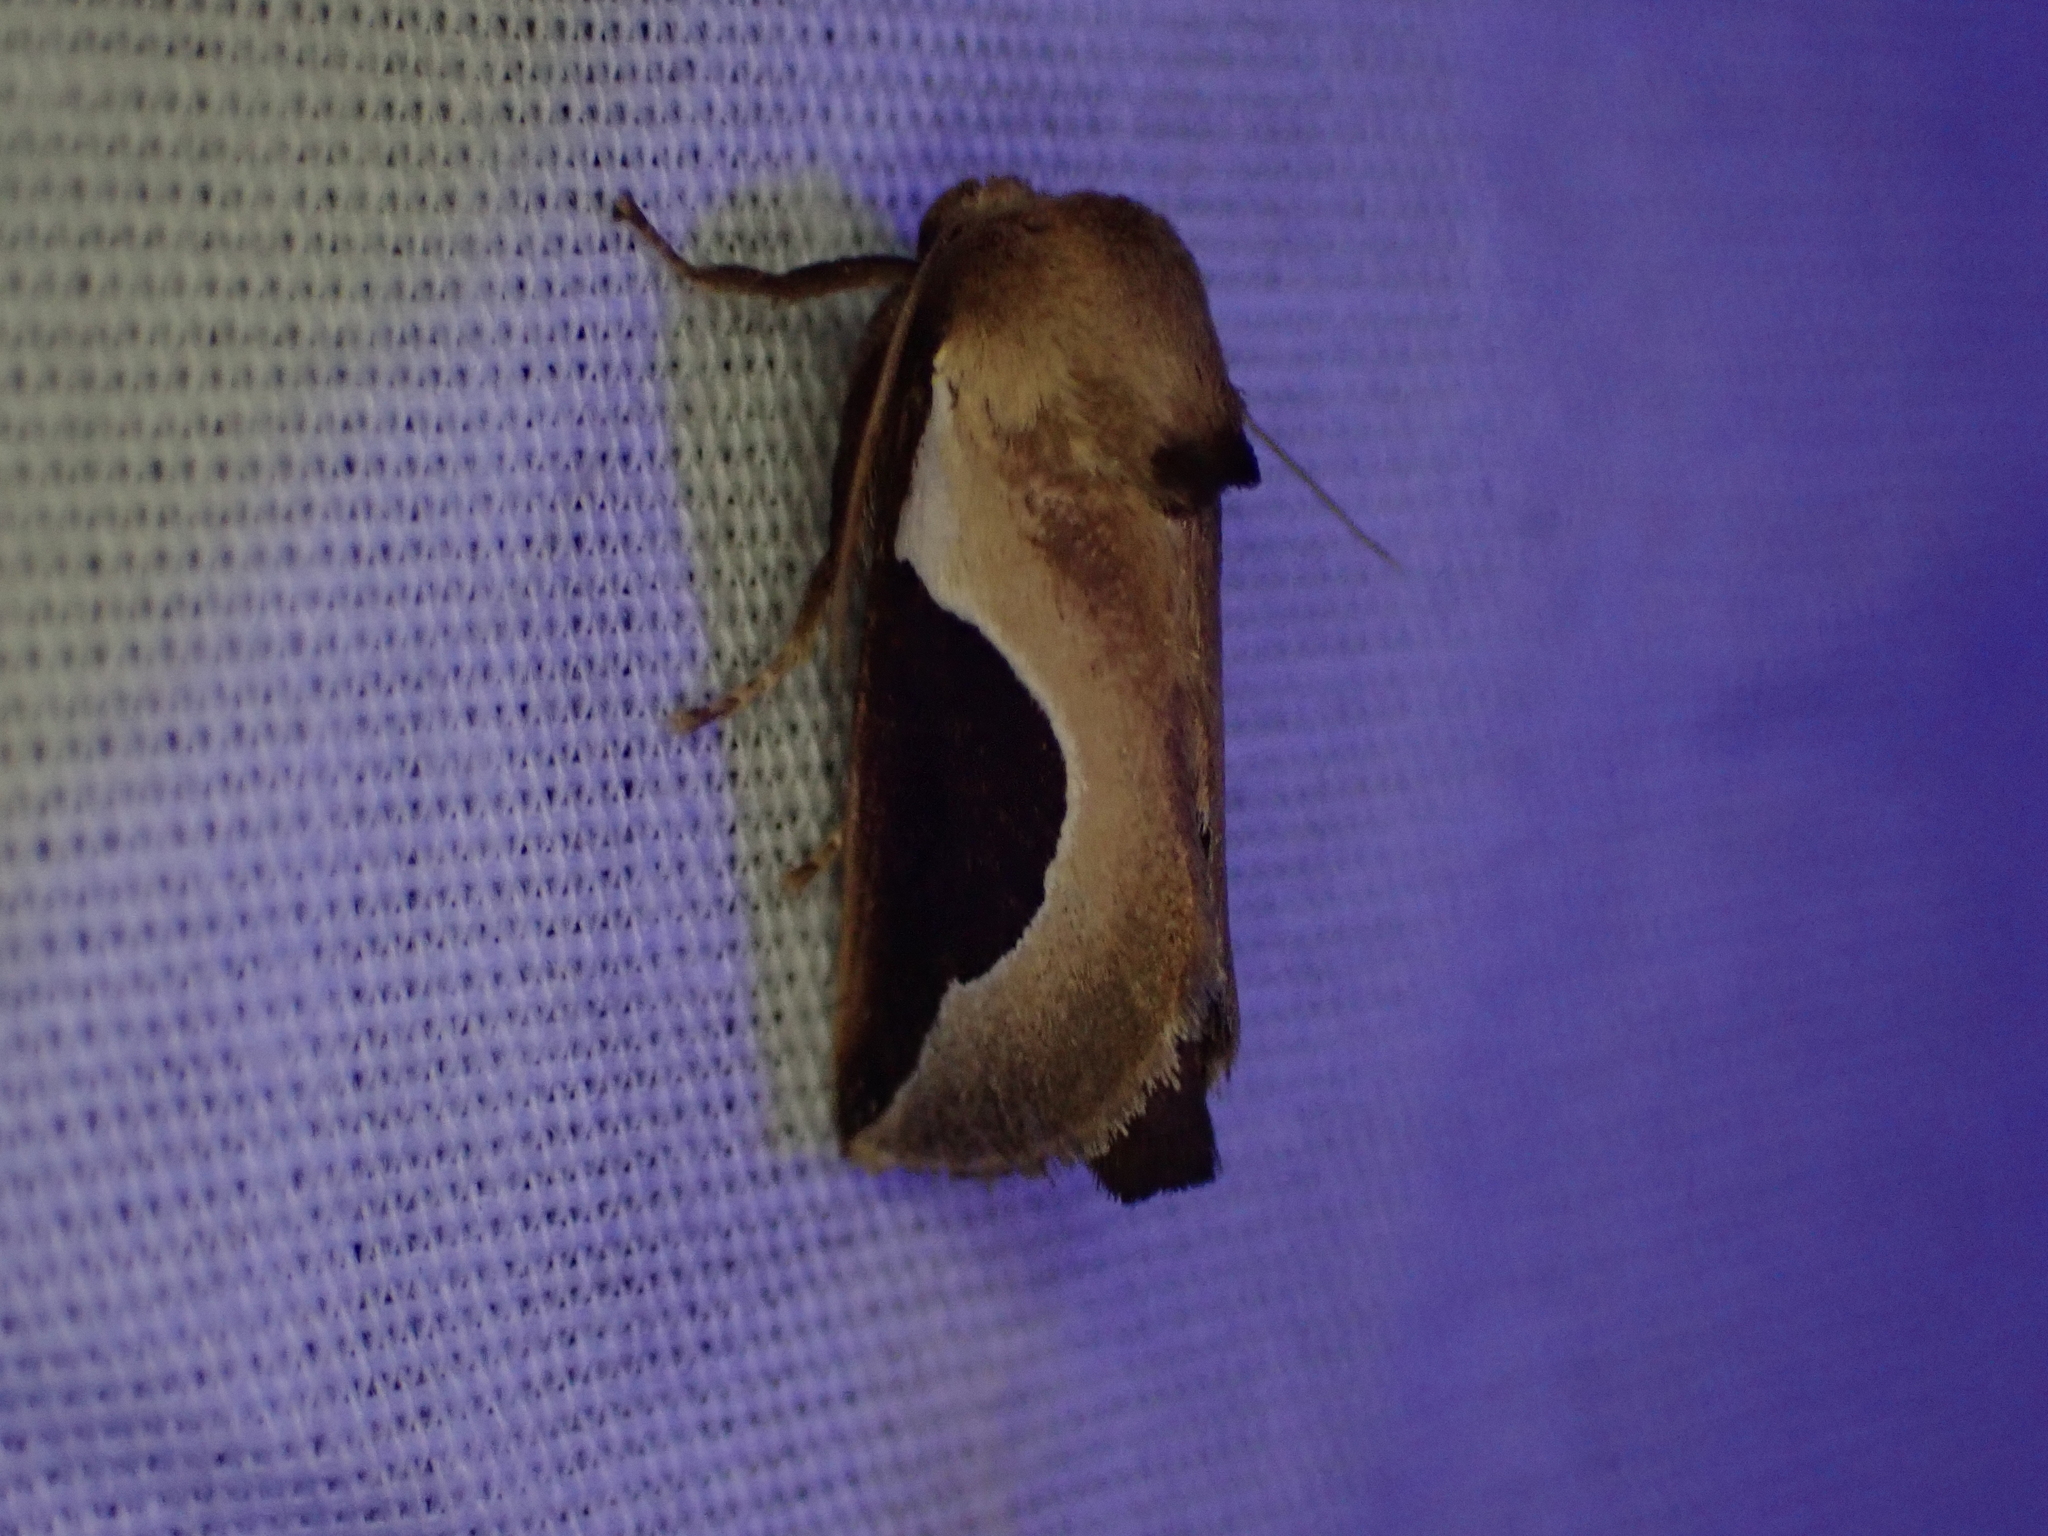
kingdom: Animalia
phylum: Arthropoda
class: Insecta
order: Lepidoptera
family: Limacodidae
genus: Prolimacodes
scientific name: Prolimacodes badia
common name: Skiff moth
